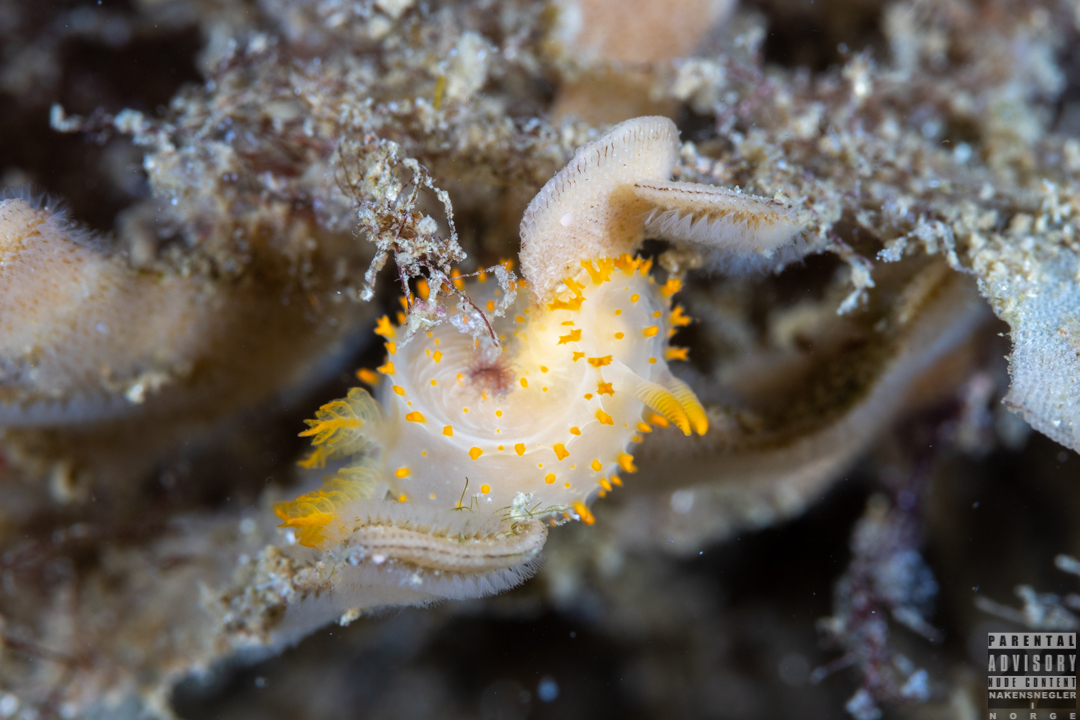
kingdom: Animalia
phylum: Mollusca
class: Gastropoda
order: Nudibranchia
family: Polyceridae
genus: Crimora
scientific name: Crimora papillata
